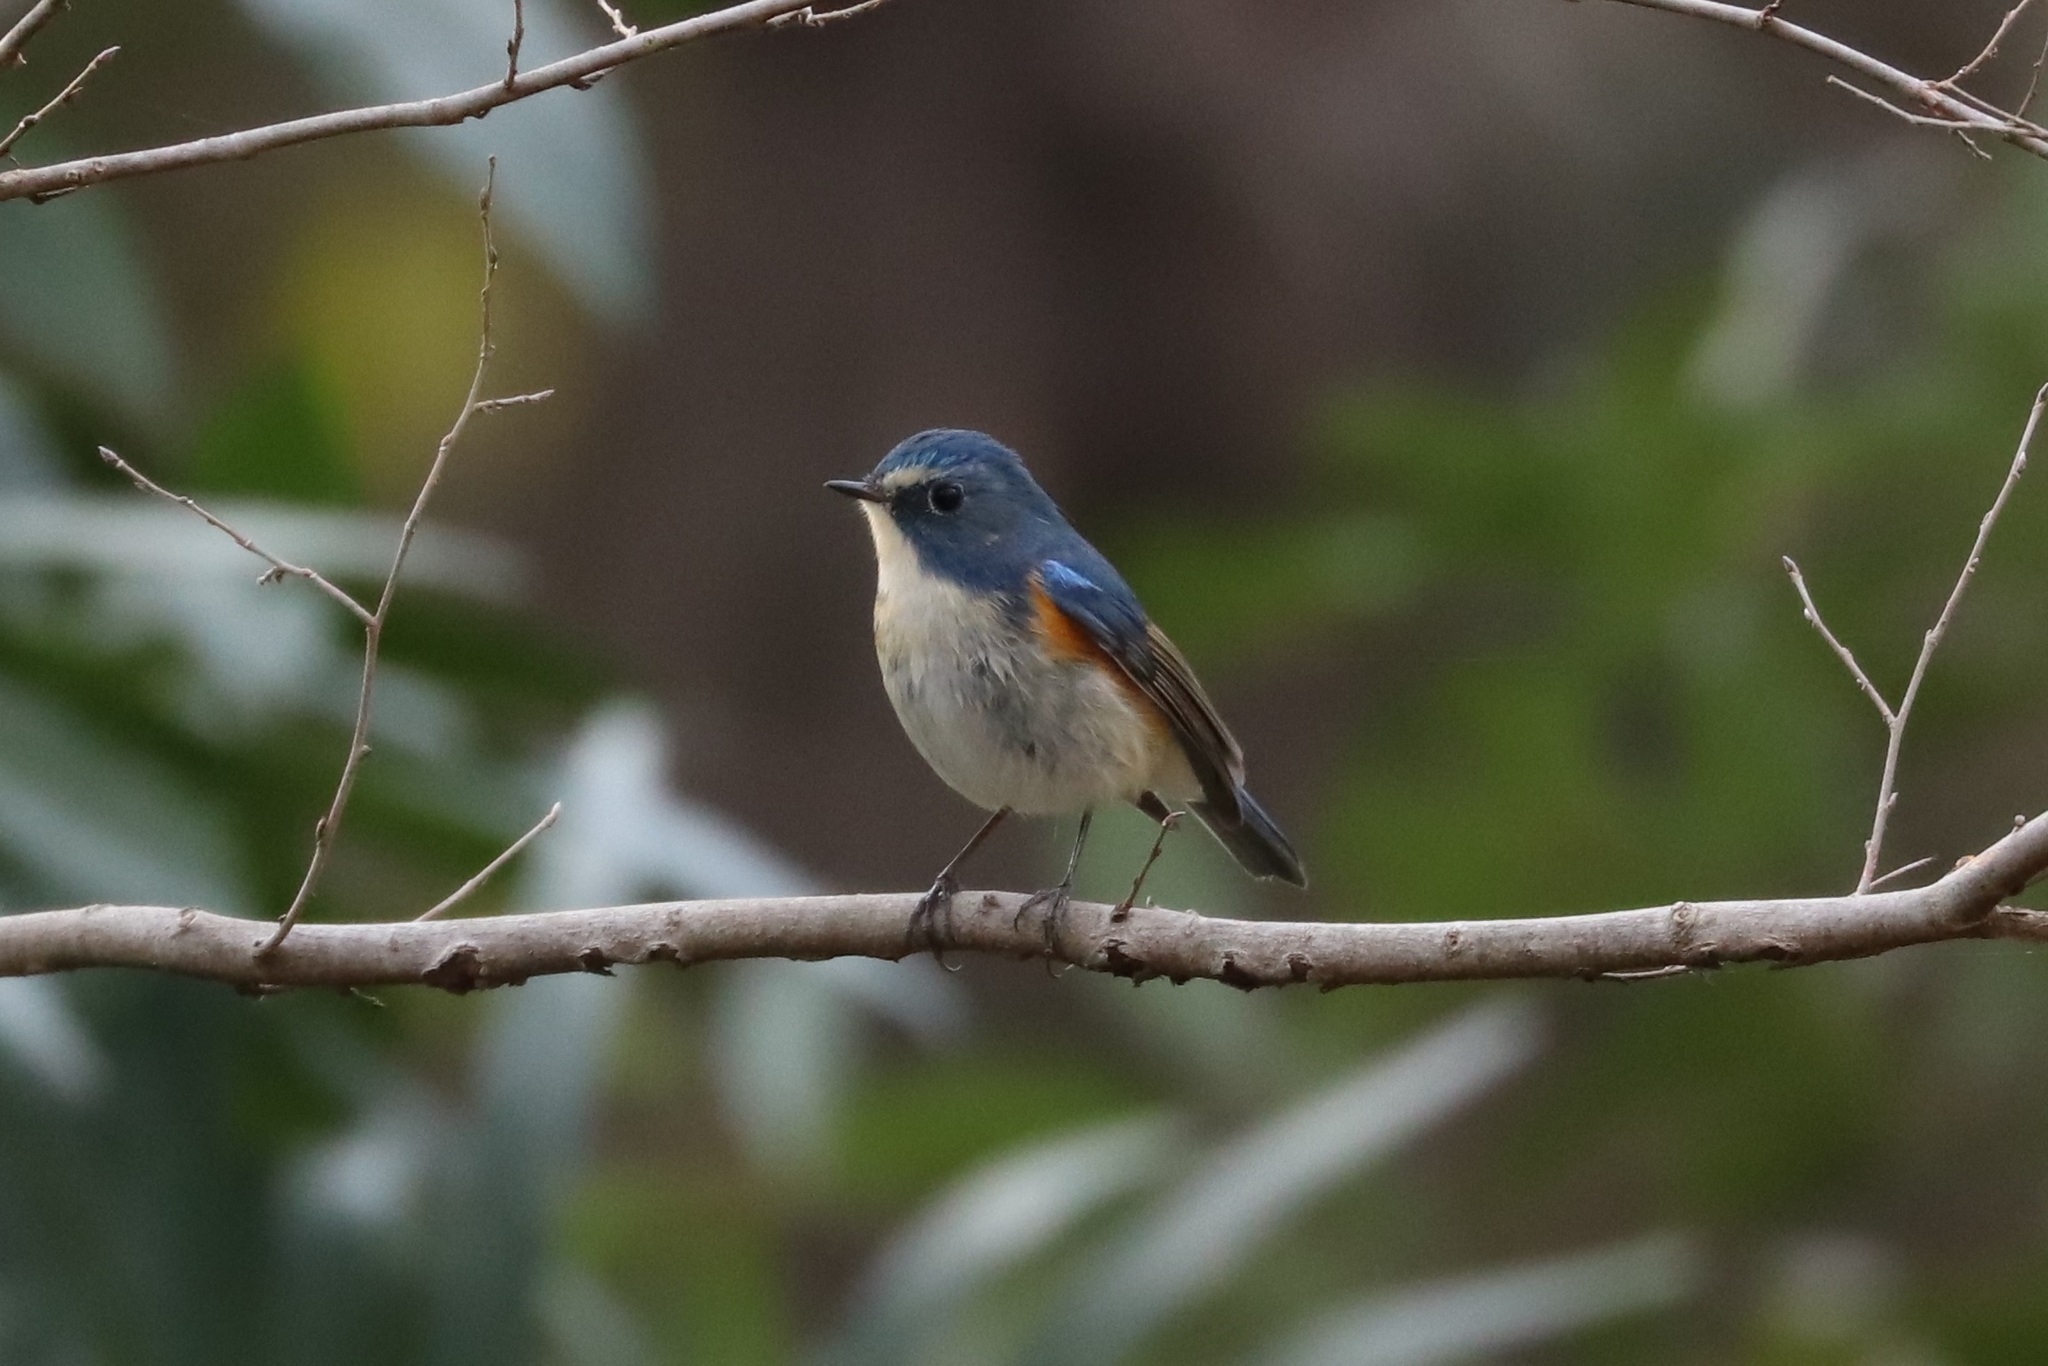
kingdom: Animalia
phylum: Chordata
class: Aves
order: Passeriformes
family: Muscicapidae
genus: Tarsiger
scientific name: Tarsiger cyanurus
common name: Red-flanked bluetail
